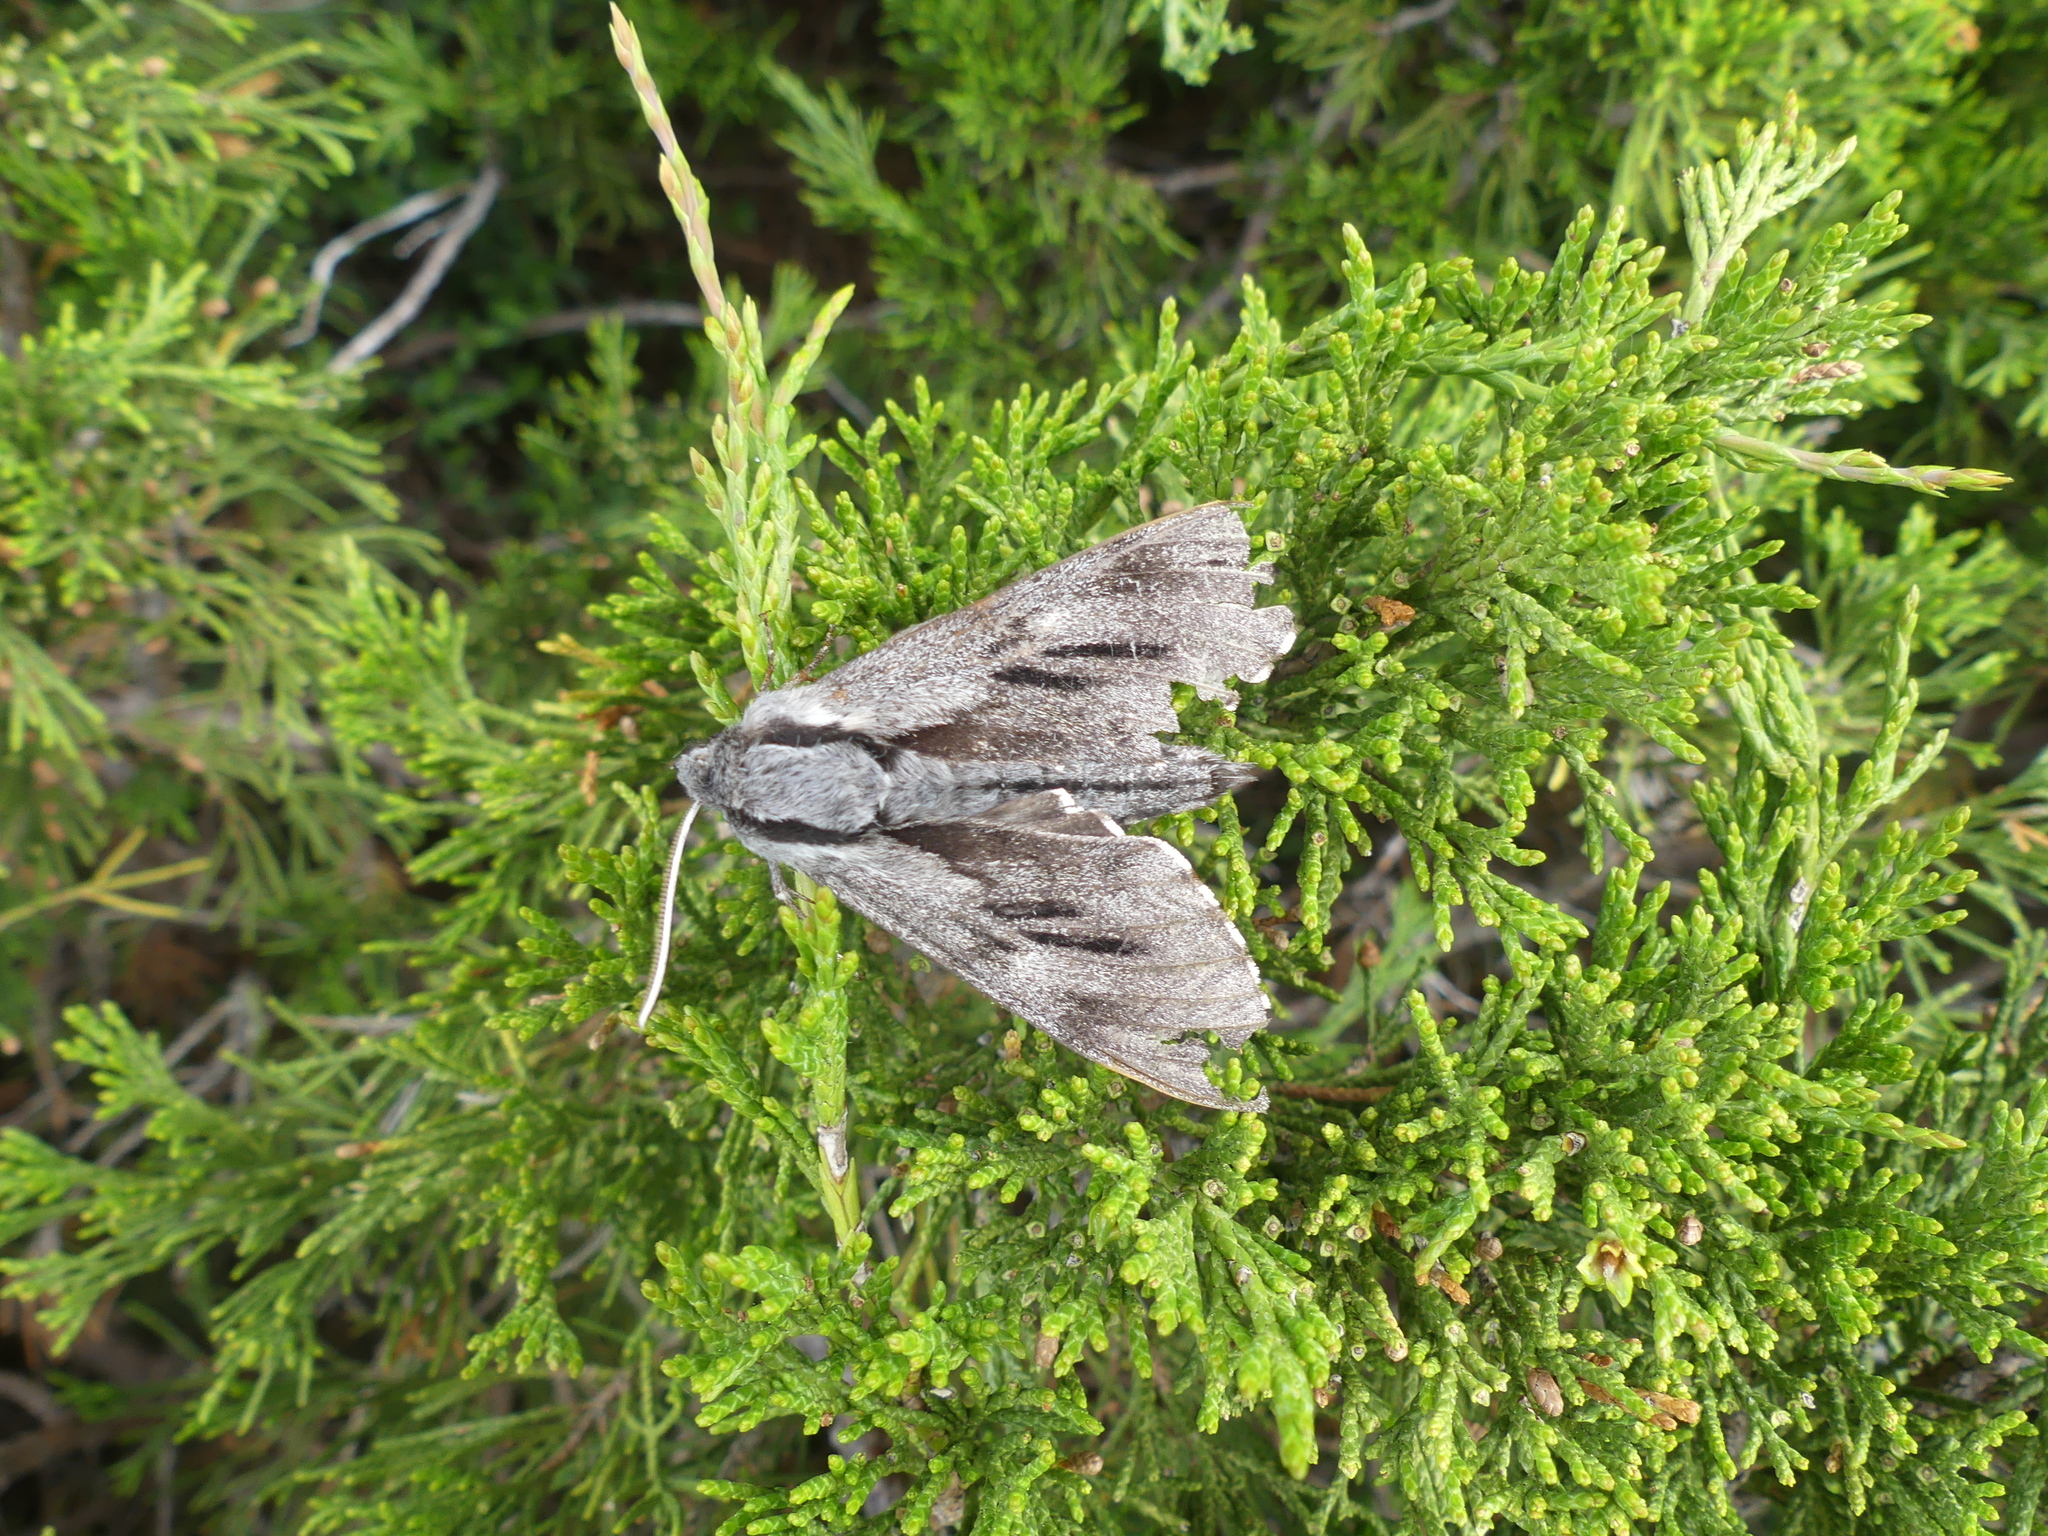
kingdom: Animalia
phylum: Arthropoda
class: Insecta
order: Lepidoptera
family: Sphingidae
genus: Sphinx
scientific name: Sphinx pinastri
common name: Pine hawk-moth
